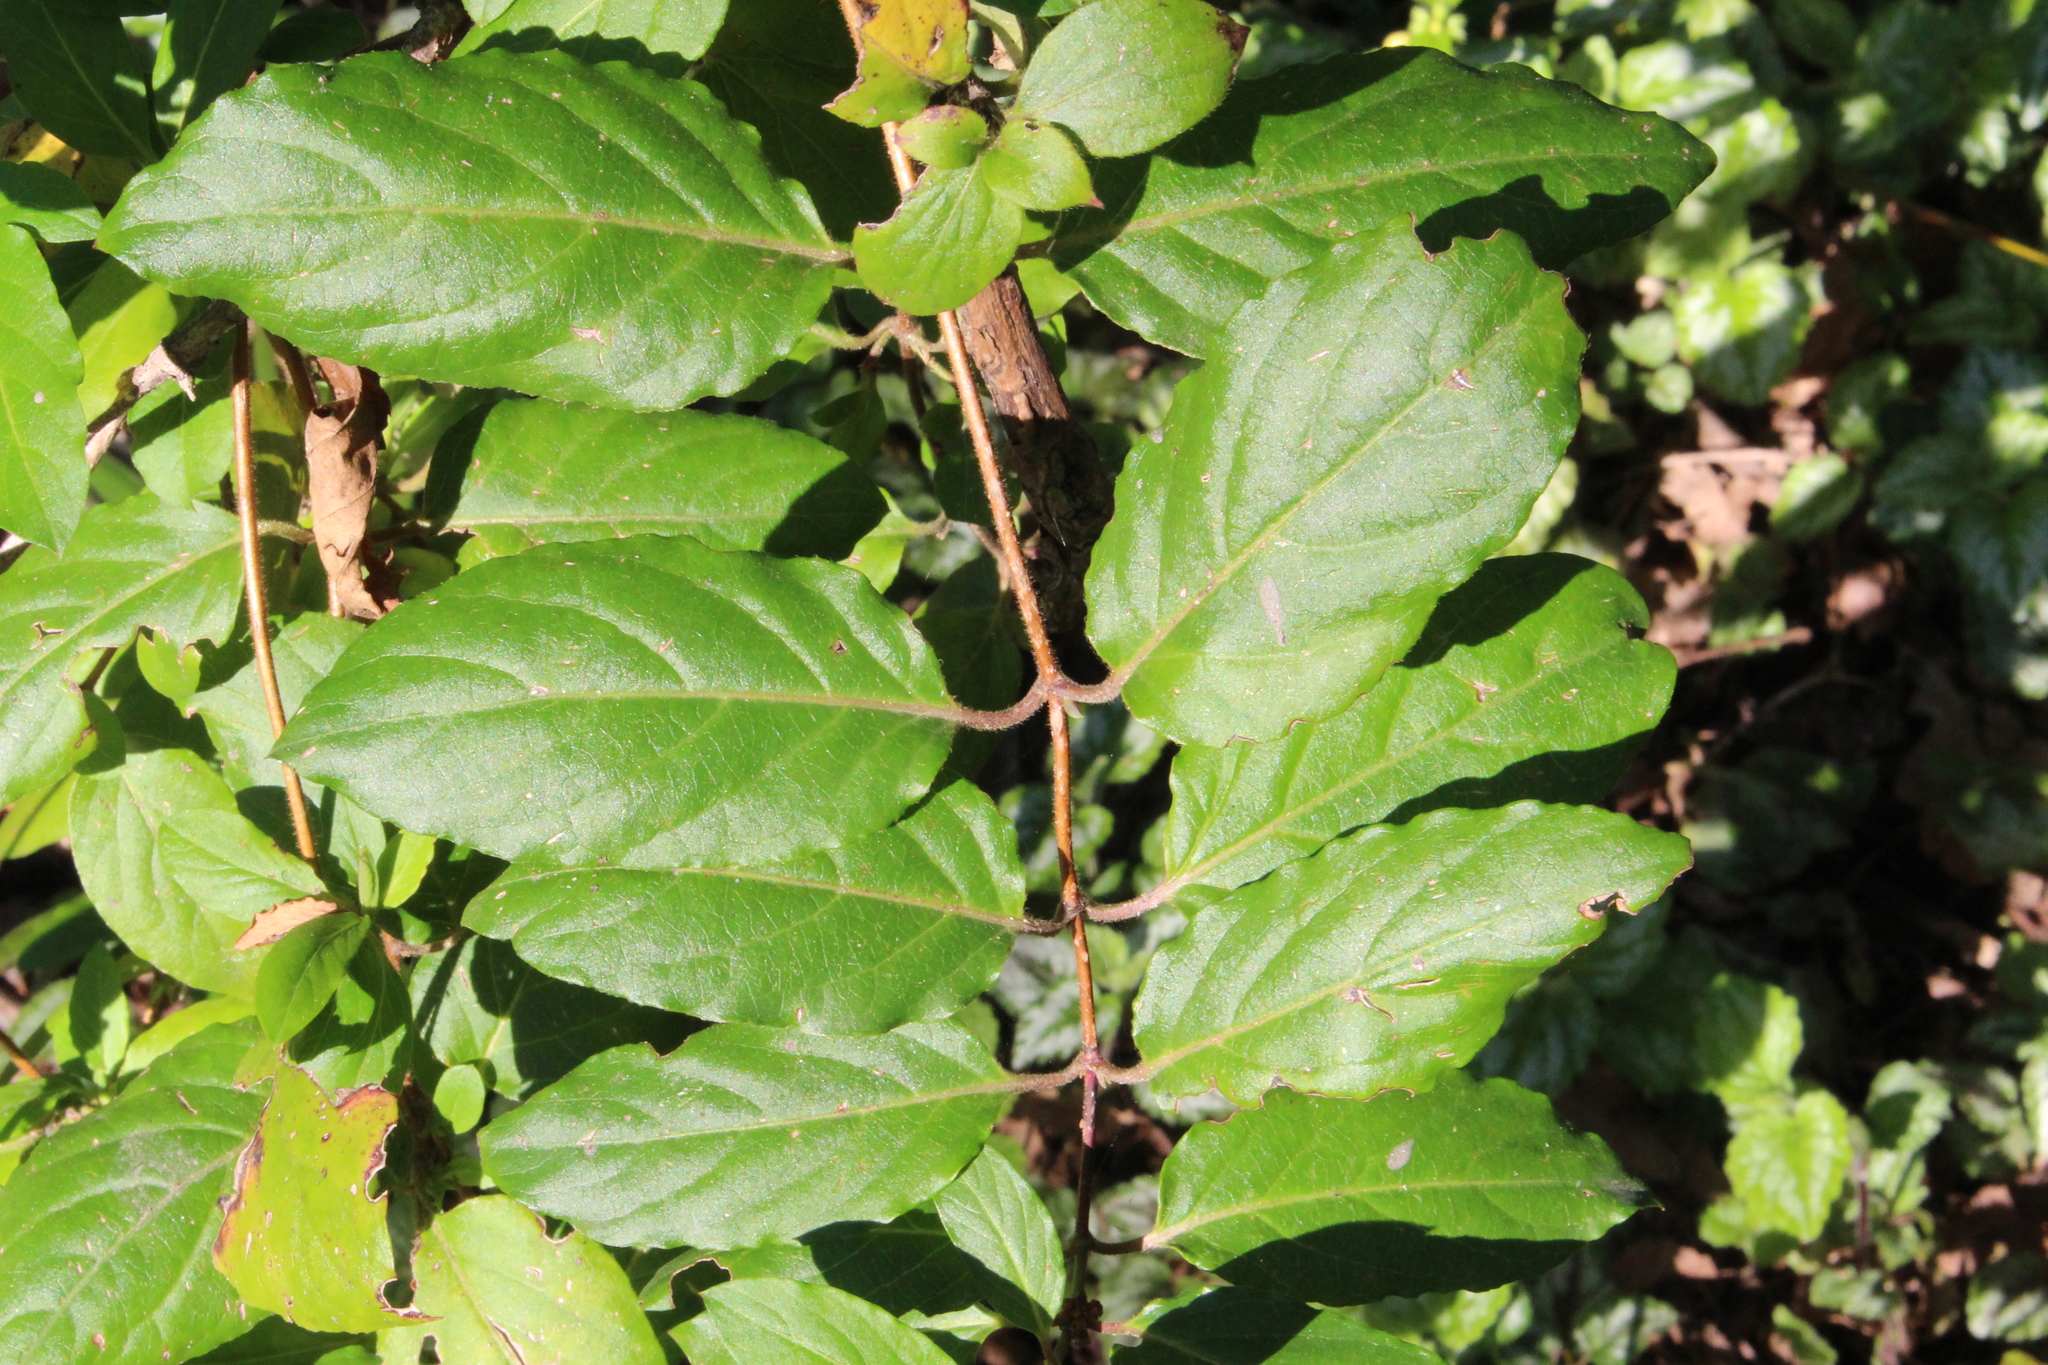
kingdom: Plantae
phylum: Tracheophyta
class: Magnoliopsida
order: Dipsacales
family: Caprifoliaceae
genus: Lonicera
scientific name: Lonicera japonica
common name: Japanese honeysuckle
